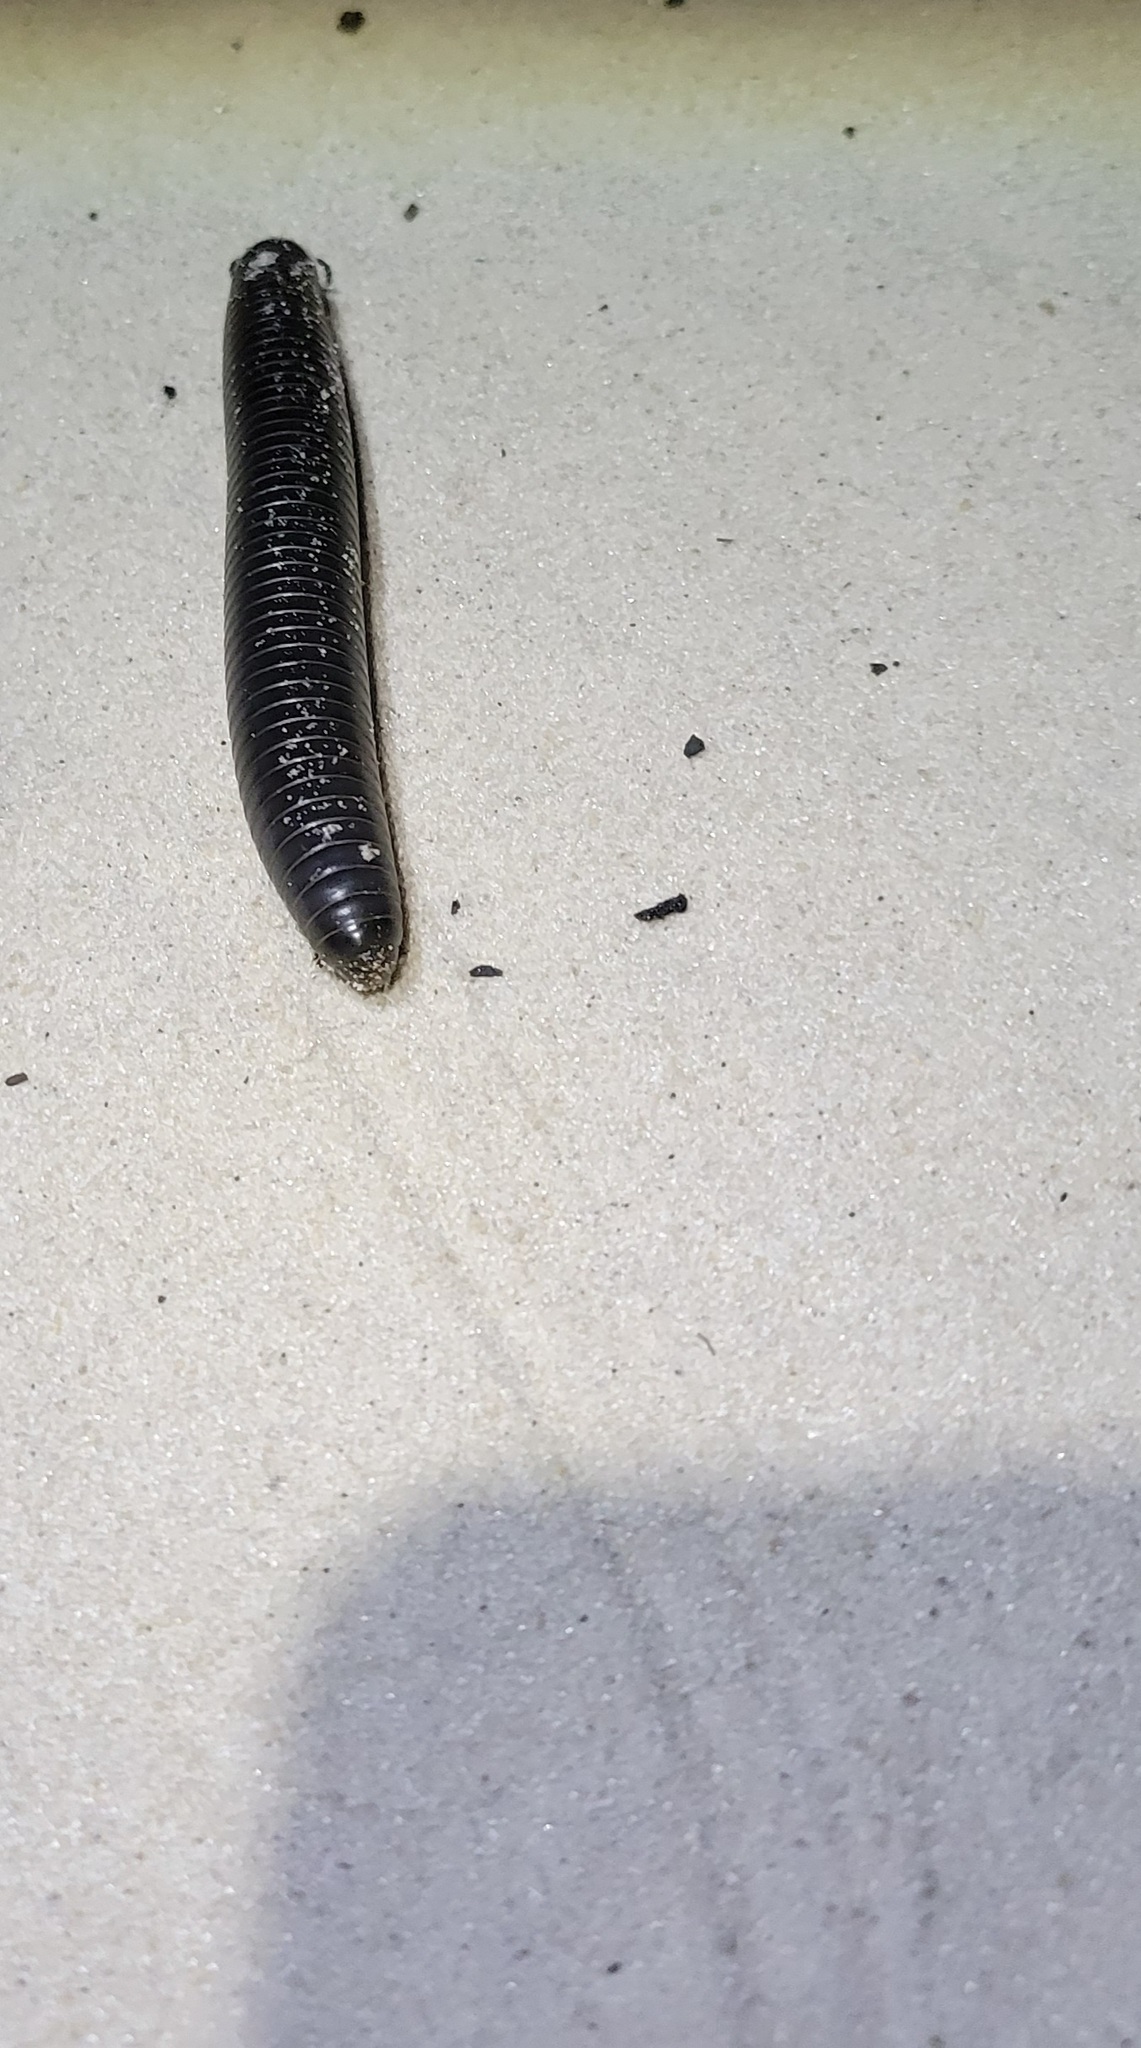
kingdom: Animalia
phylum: Arthropoda
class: Diplopoda
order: Spirobolida
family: Spirobolidae
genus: Floridobolus
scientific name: Floridobolus floydi
